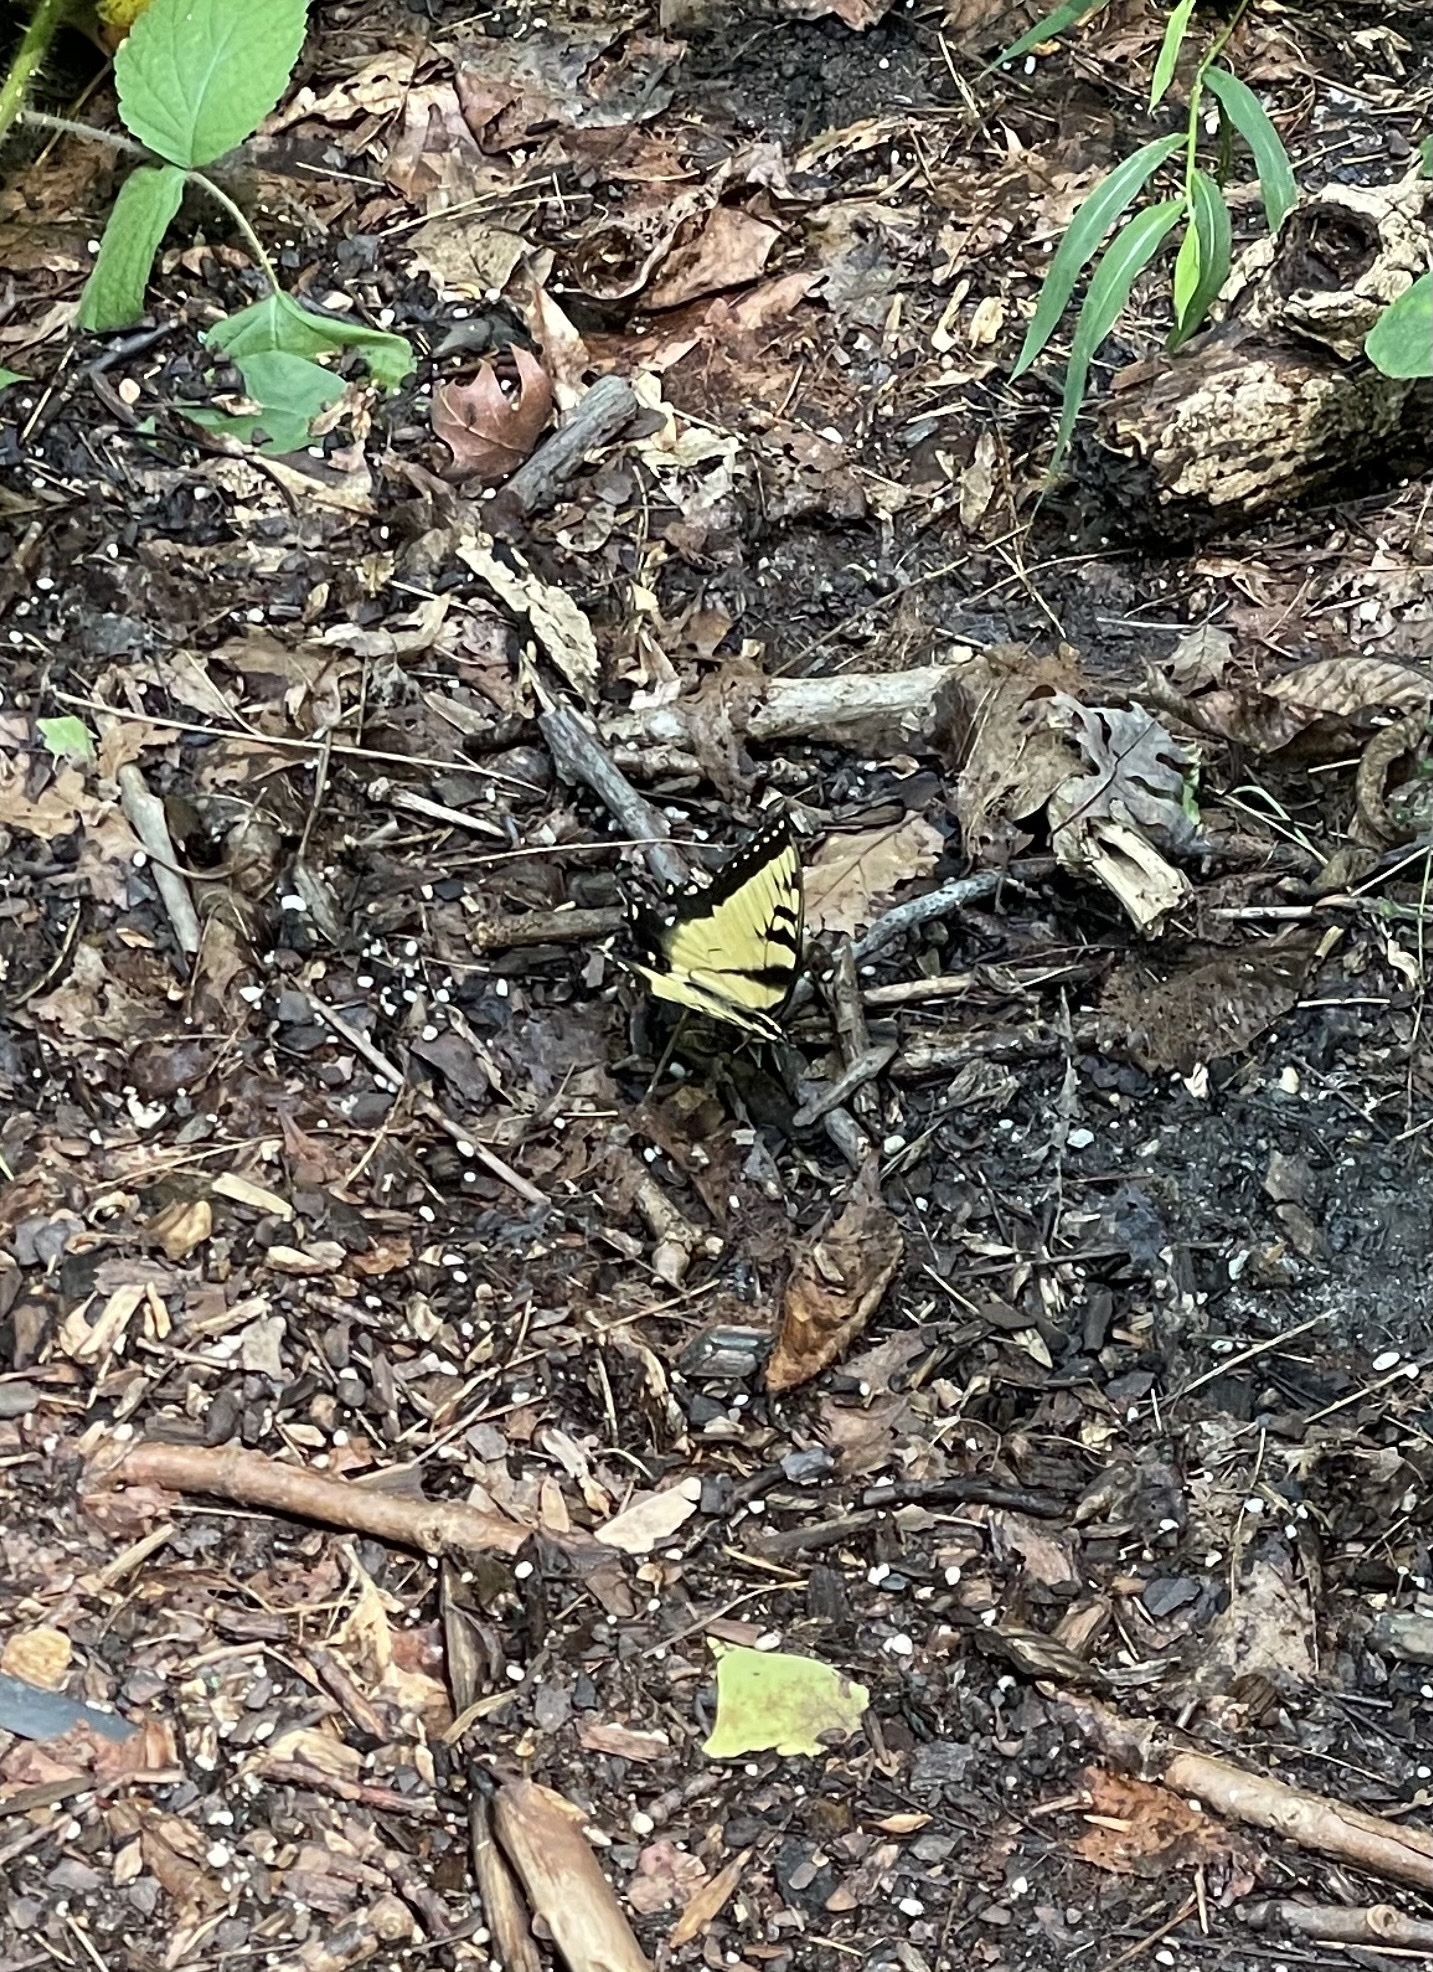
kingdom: Animalia
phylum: Arthropoda
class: Insecta
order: Lepidoptera
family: Papilionidae
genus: Papilio
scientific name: Papilio glaucus
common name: Tiger swallowtail
